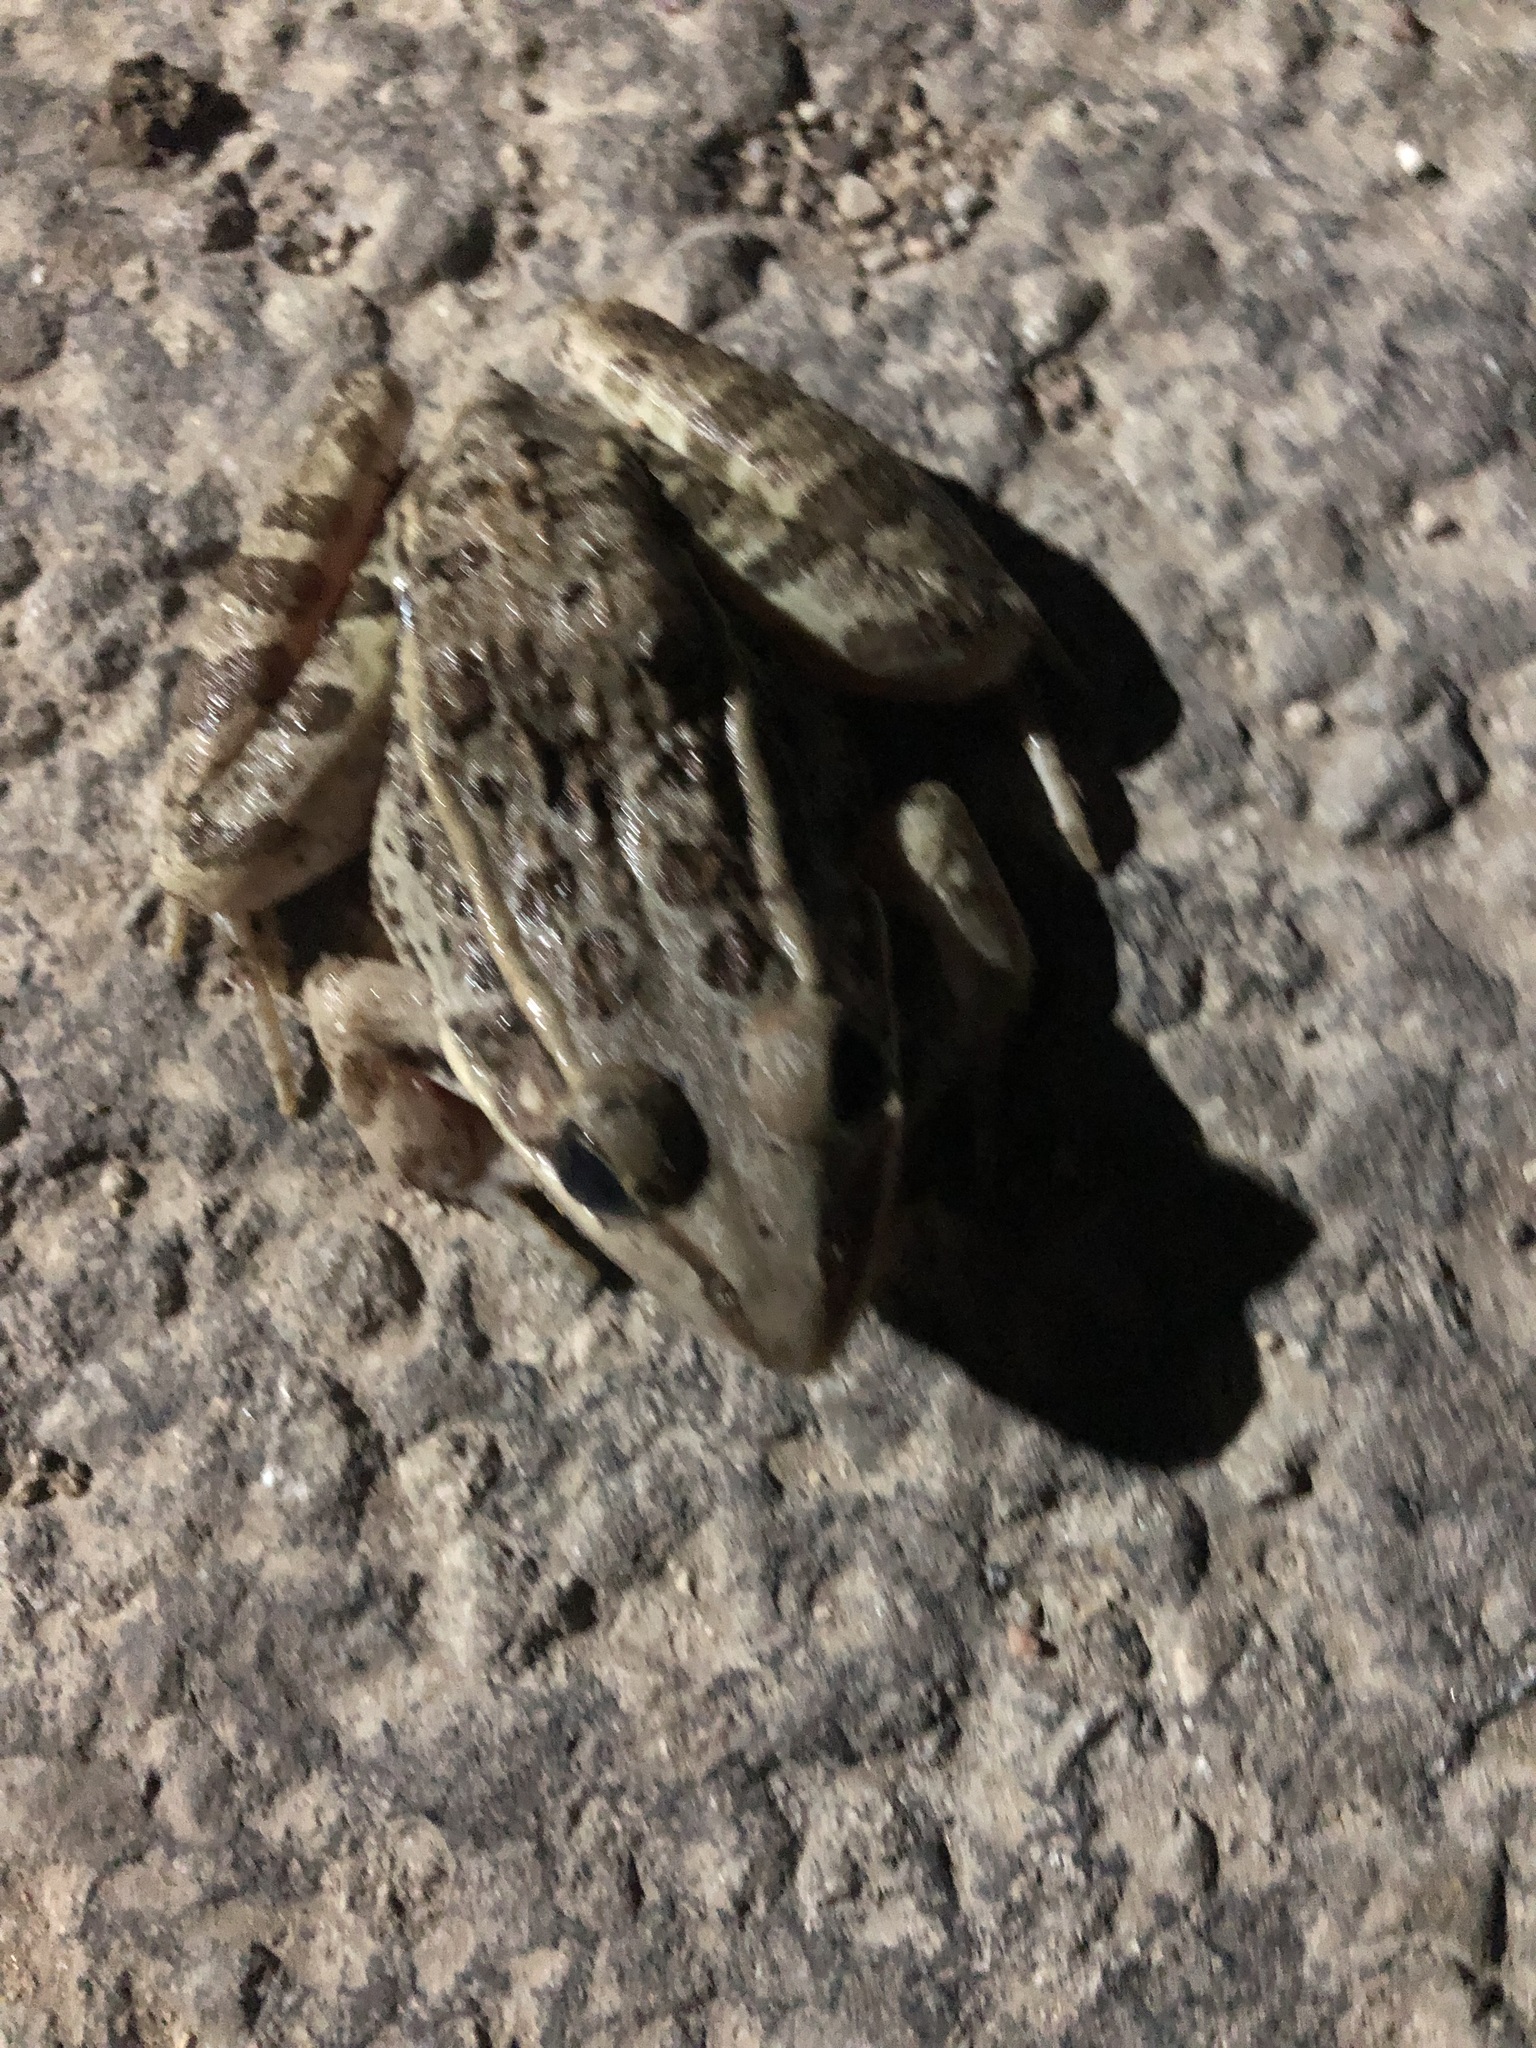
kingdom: Animalia
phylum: Chordata
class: Amphibia
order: Anura
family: Ranidae
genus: Lithobates
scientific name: Lithobates berlandieri
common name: Rio grande leopard frog
